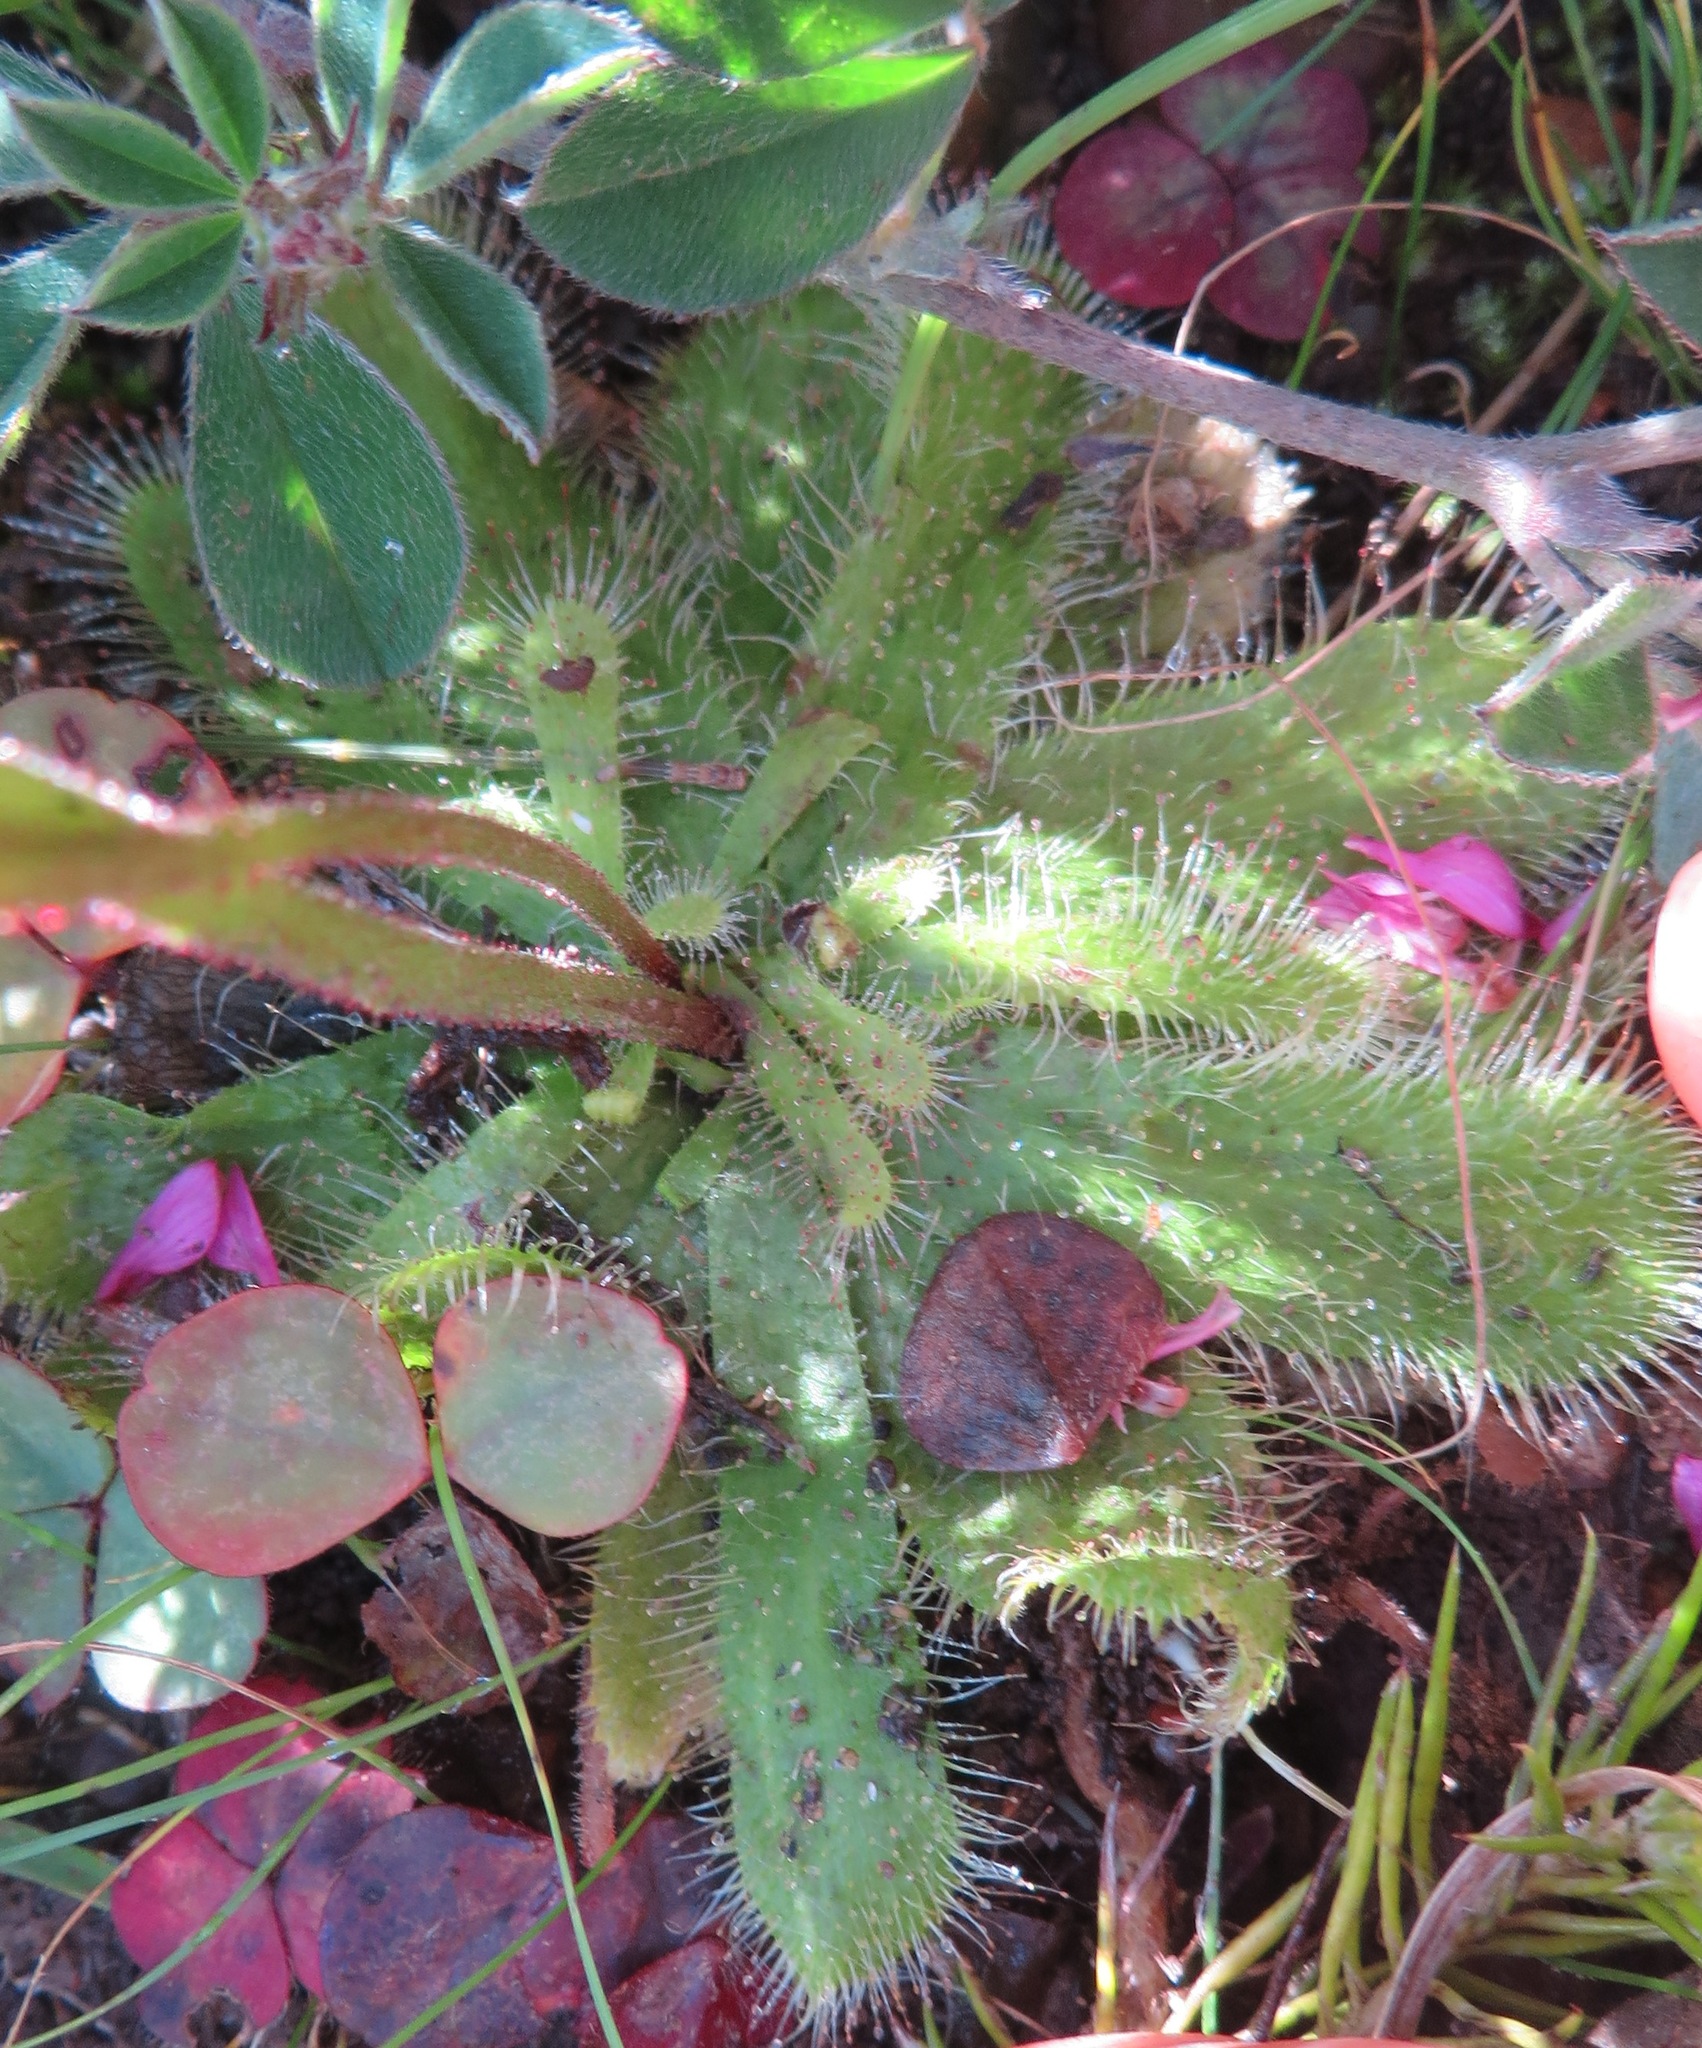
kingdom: Plantae
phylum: Tracheophyta
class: Magnoliopsida
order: Caryophyllales
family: Droseraceae
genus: Drosera
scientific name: Drosera pauciflora
